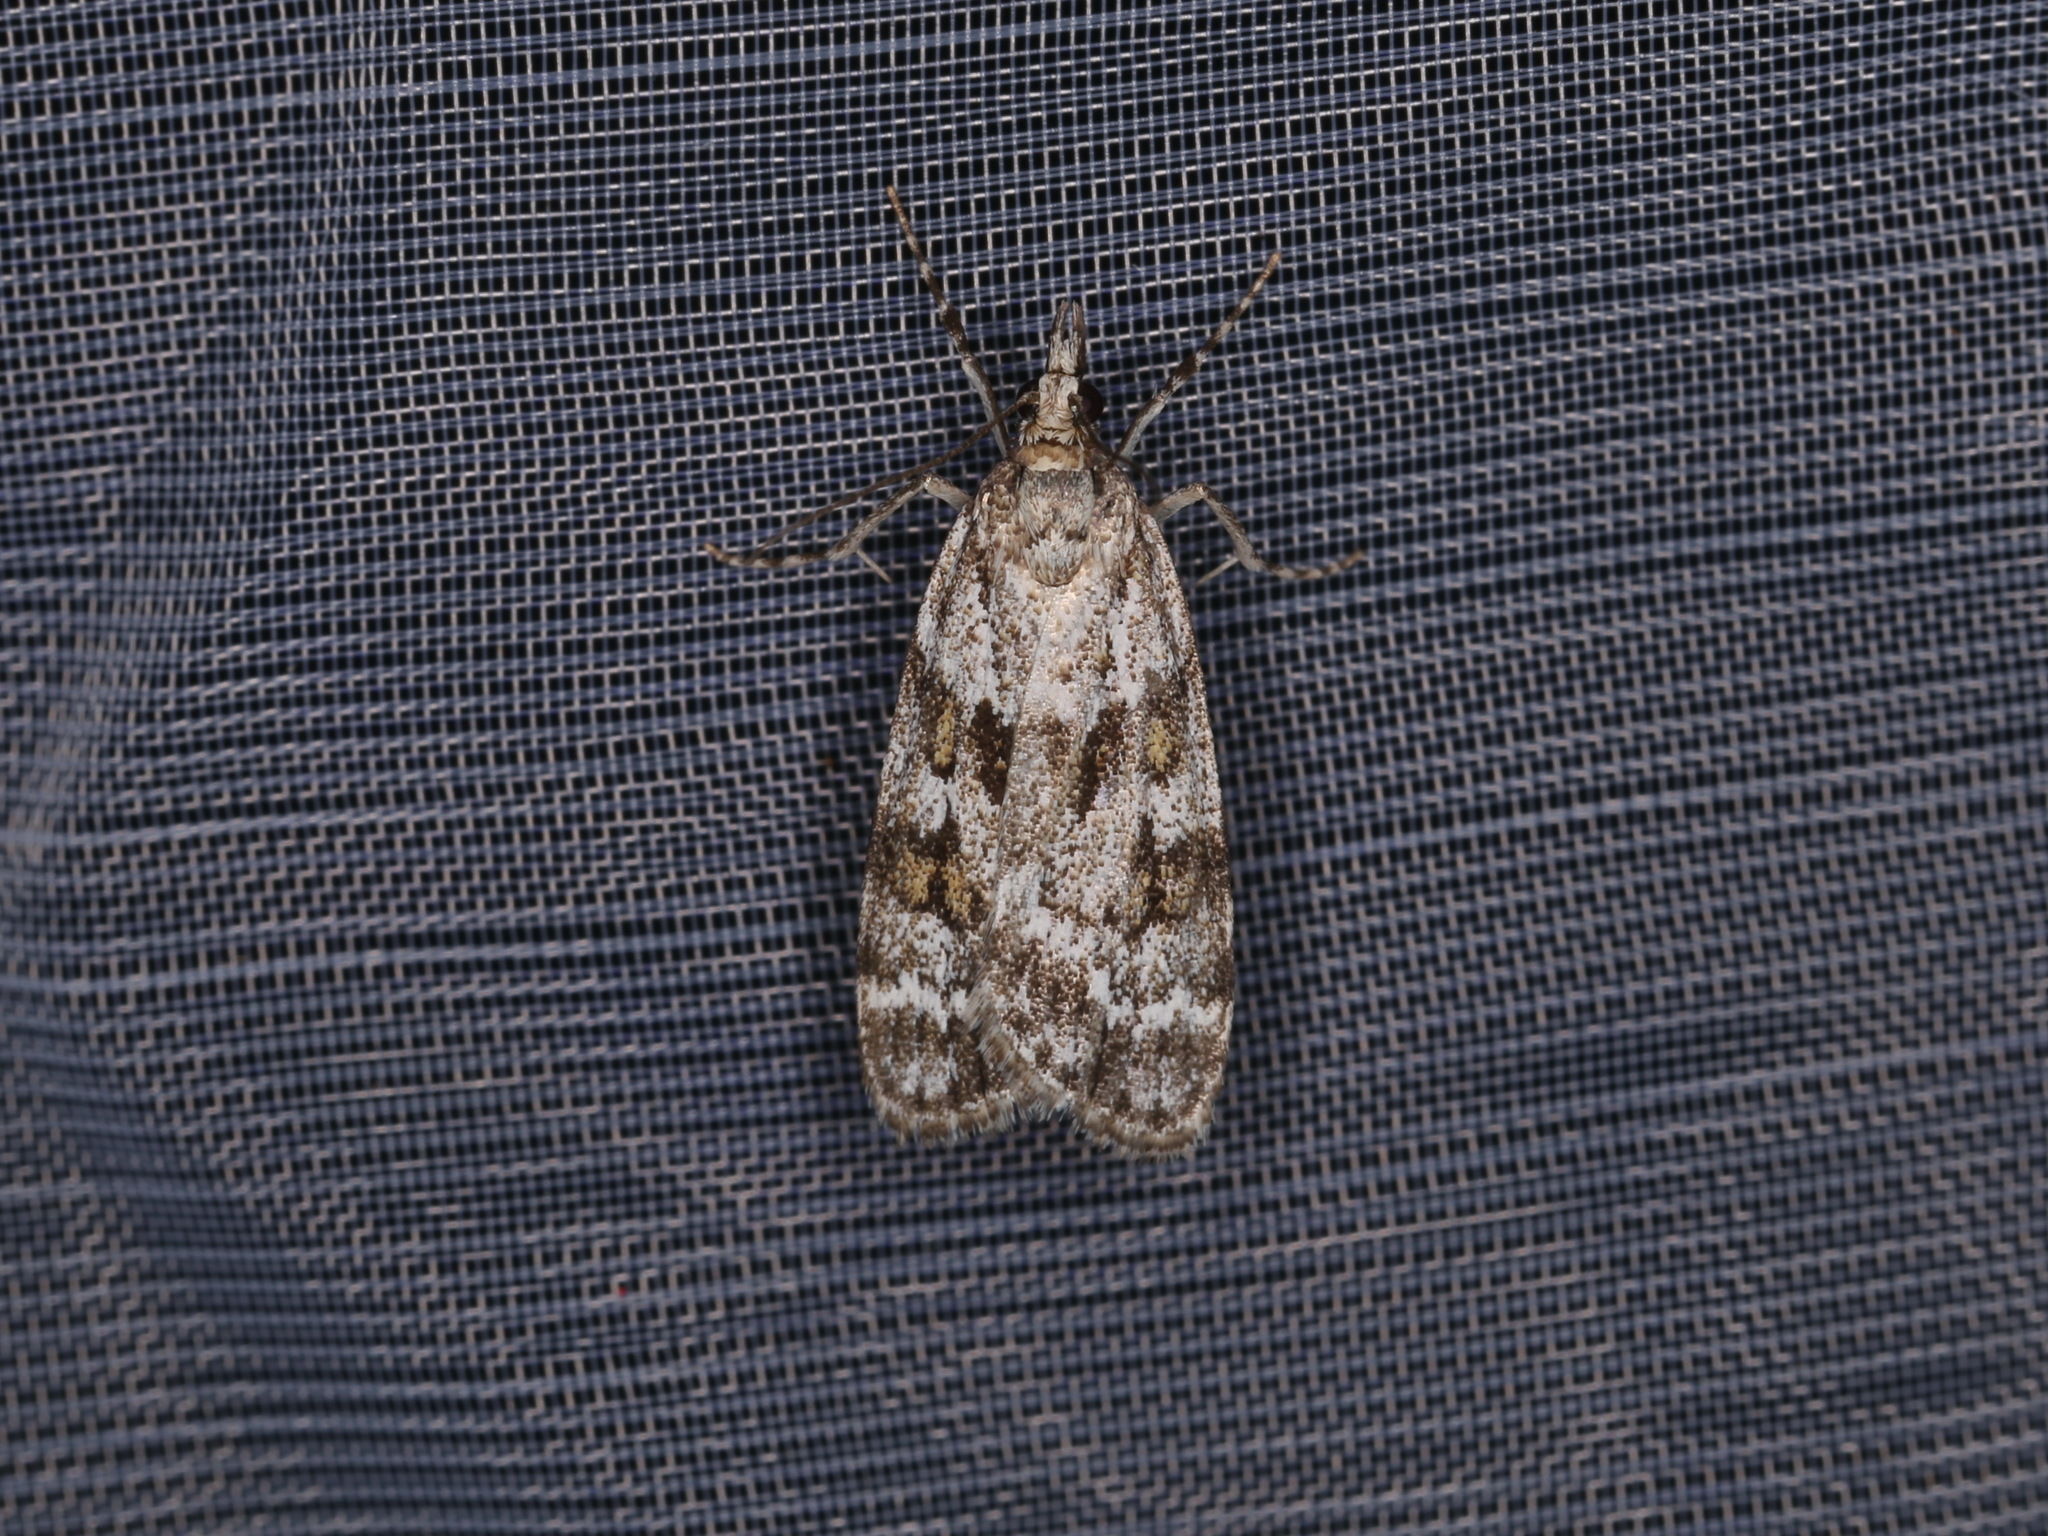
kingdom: Animalia
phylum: Arthropoda
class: Insecta
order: Lepidoptera
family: Crambidae
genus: Scoparia
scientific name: Scoparia pyralella
